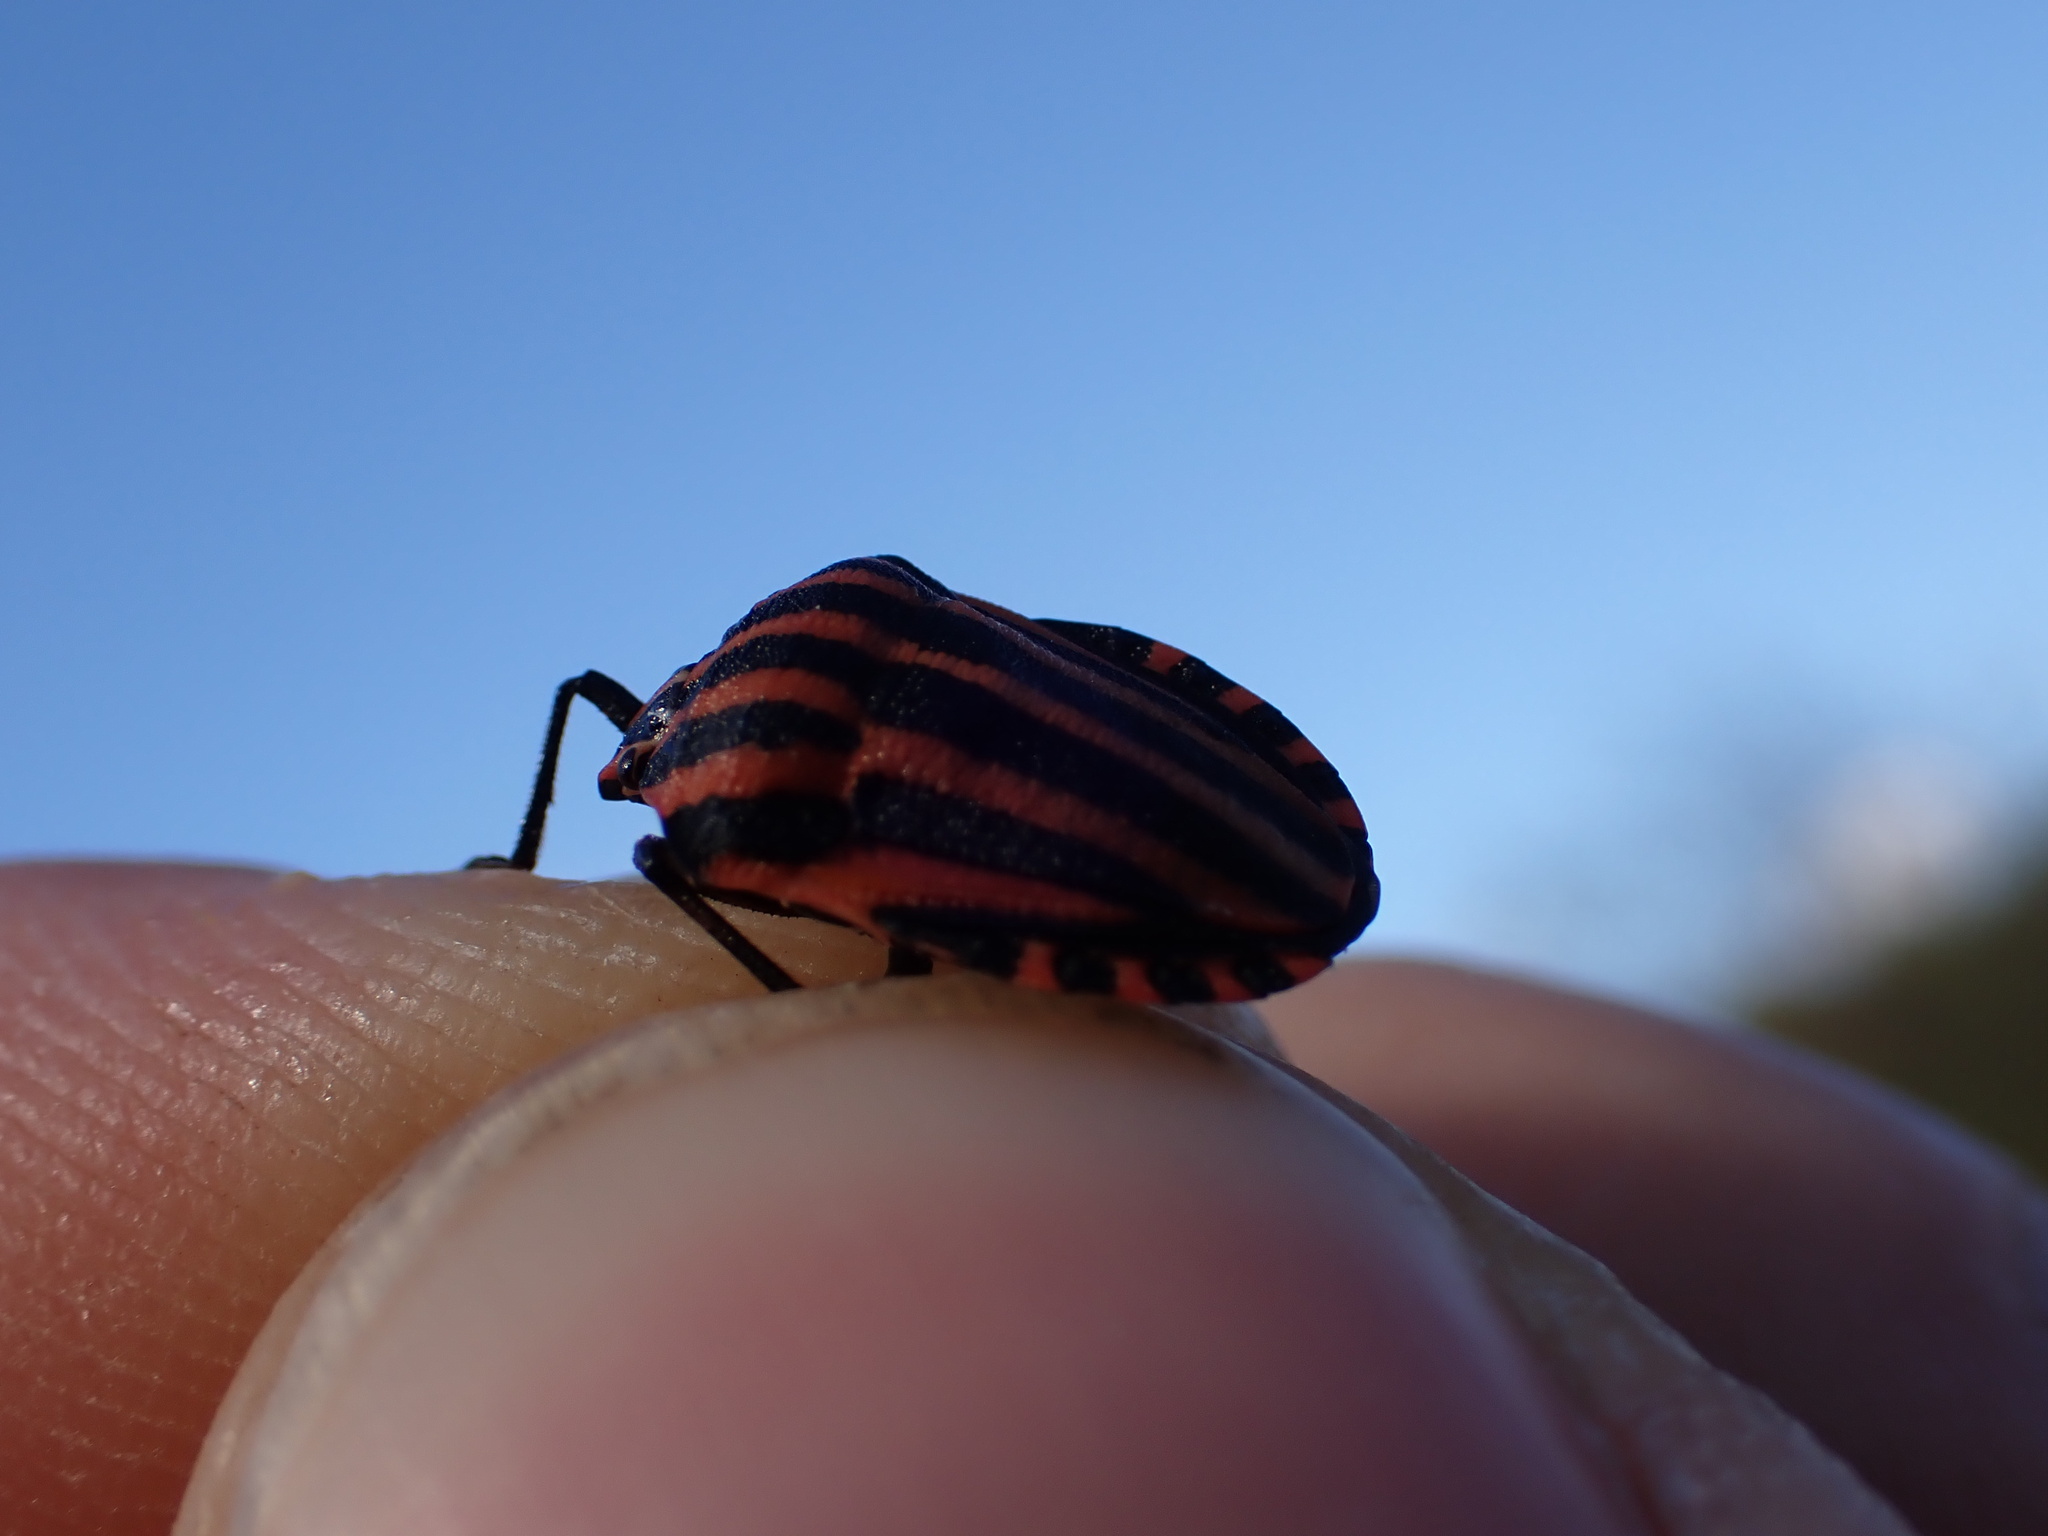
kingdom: Animalia
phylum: Arthropoda
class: Insecta
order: Hemiptera
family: Pentatomidae
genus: Graphosoma
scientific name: Graphosoma italicum
